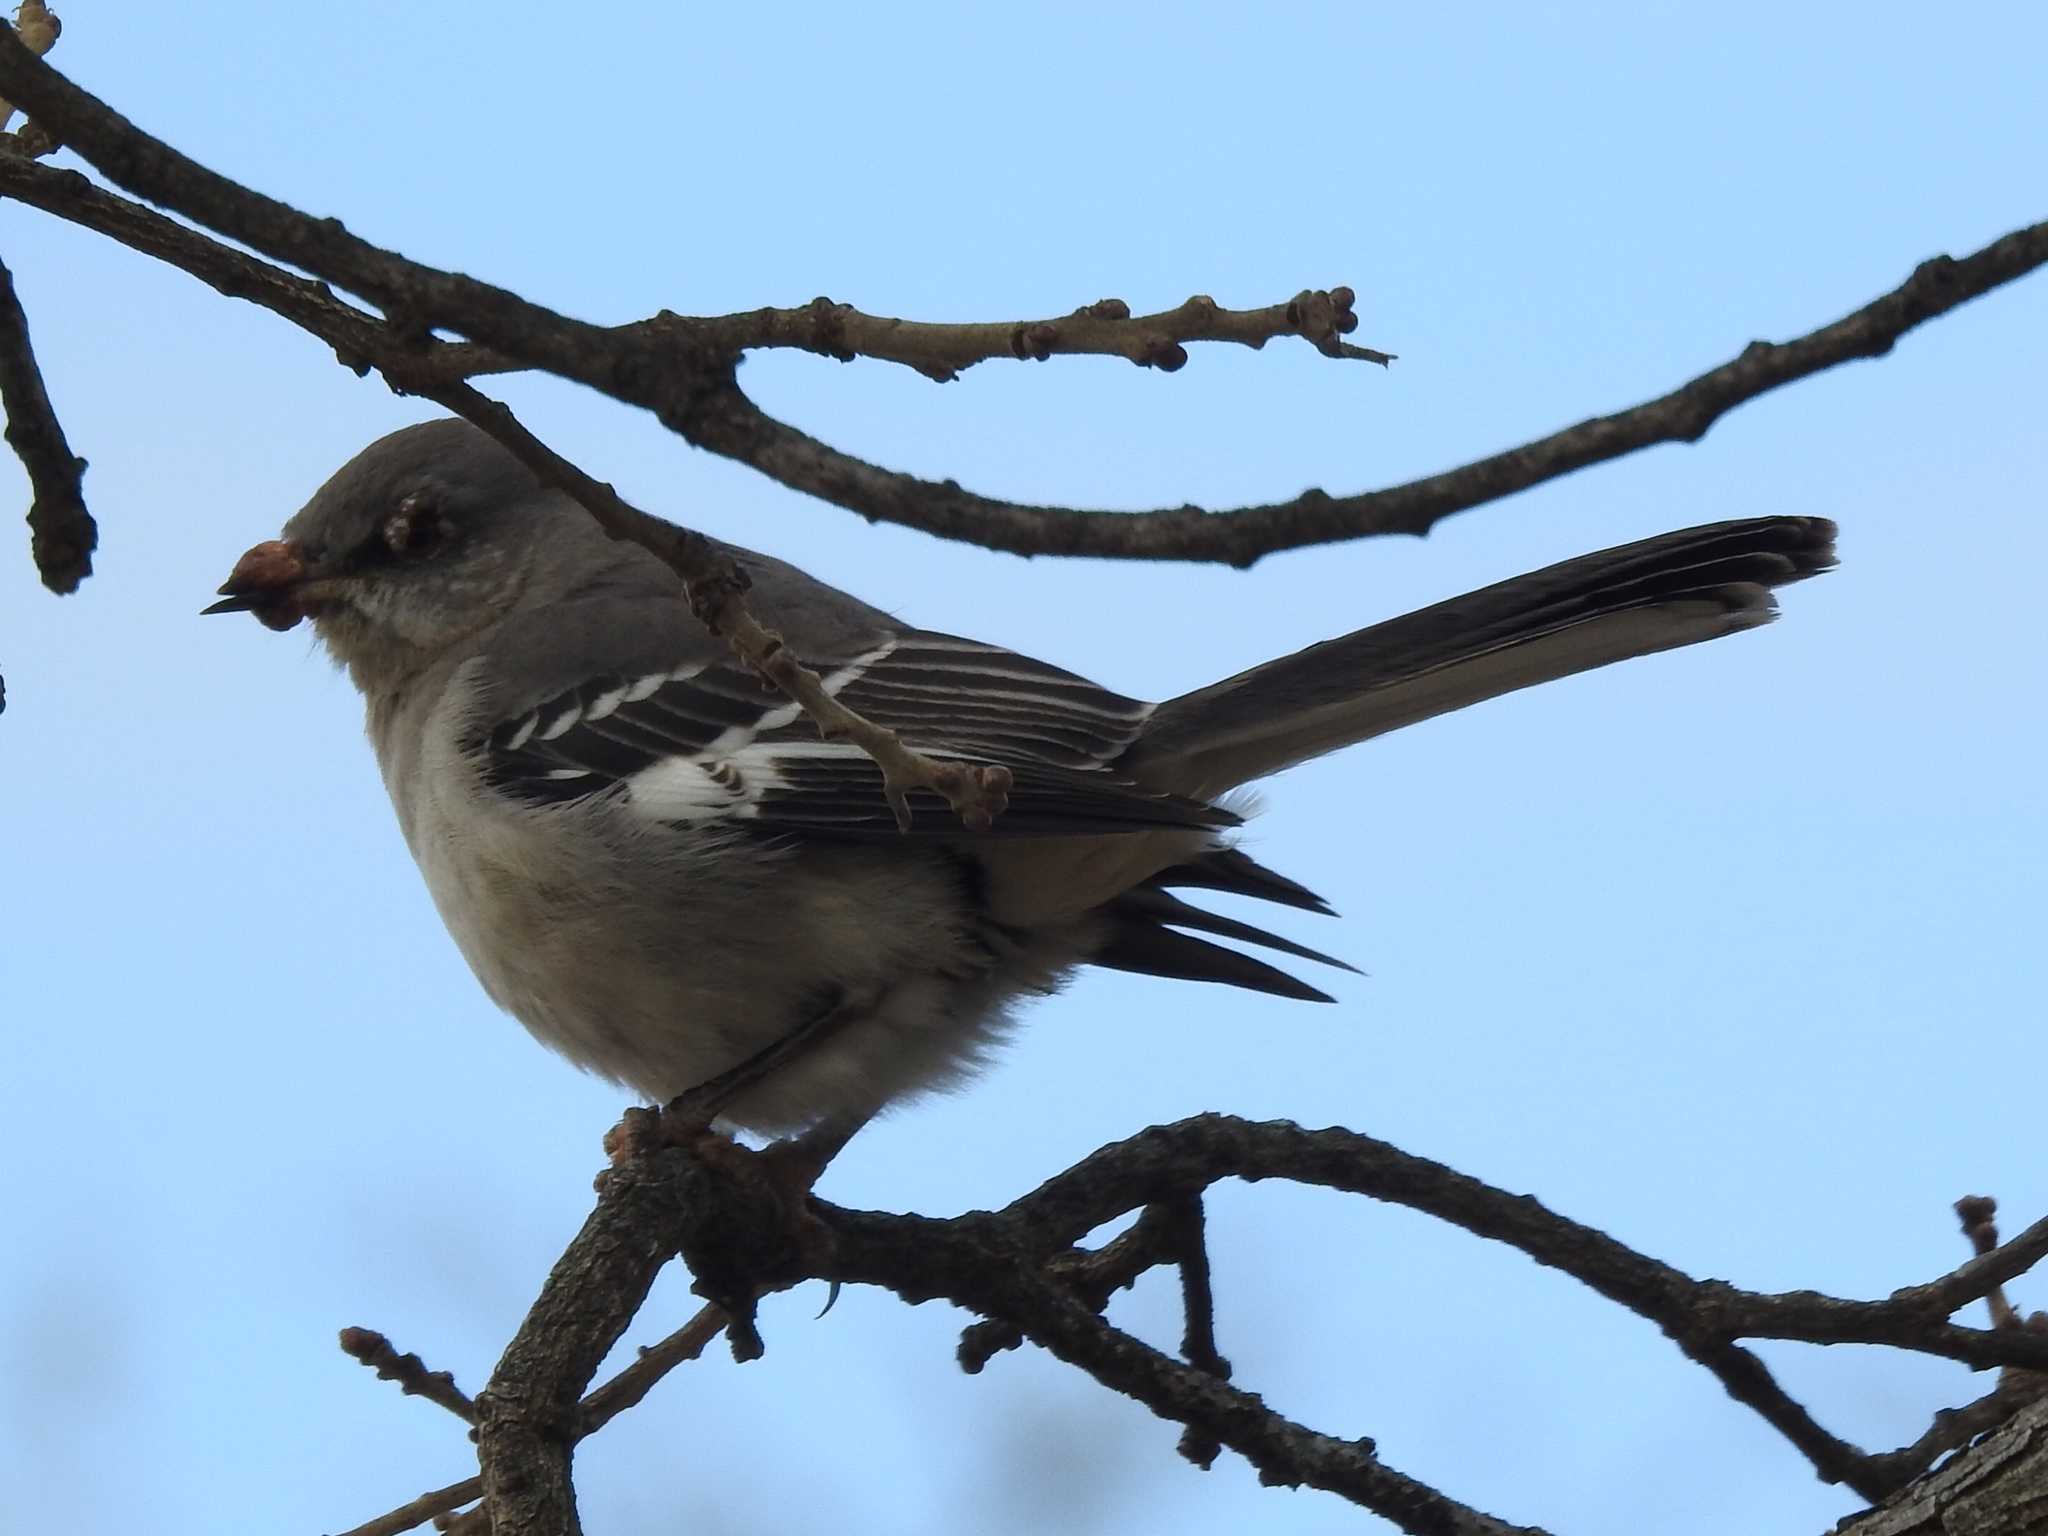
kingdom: Animalia
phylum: Chordata
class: Aves
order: Passeriformes
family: Mimidae
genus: Mimus
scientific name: Mimus polyglottos
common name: Northern mockingbird
